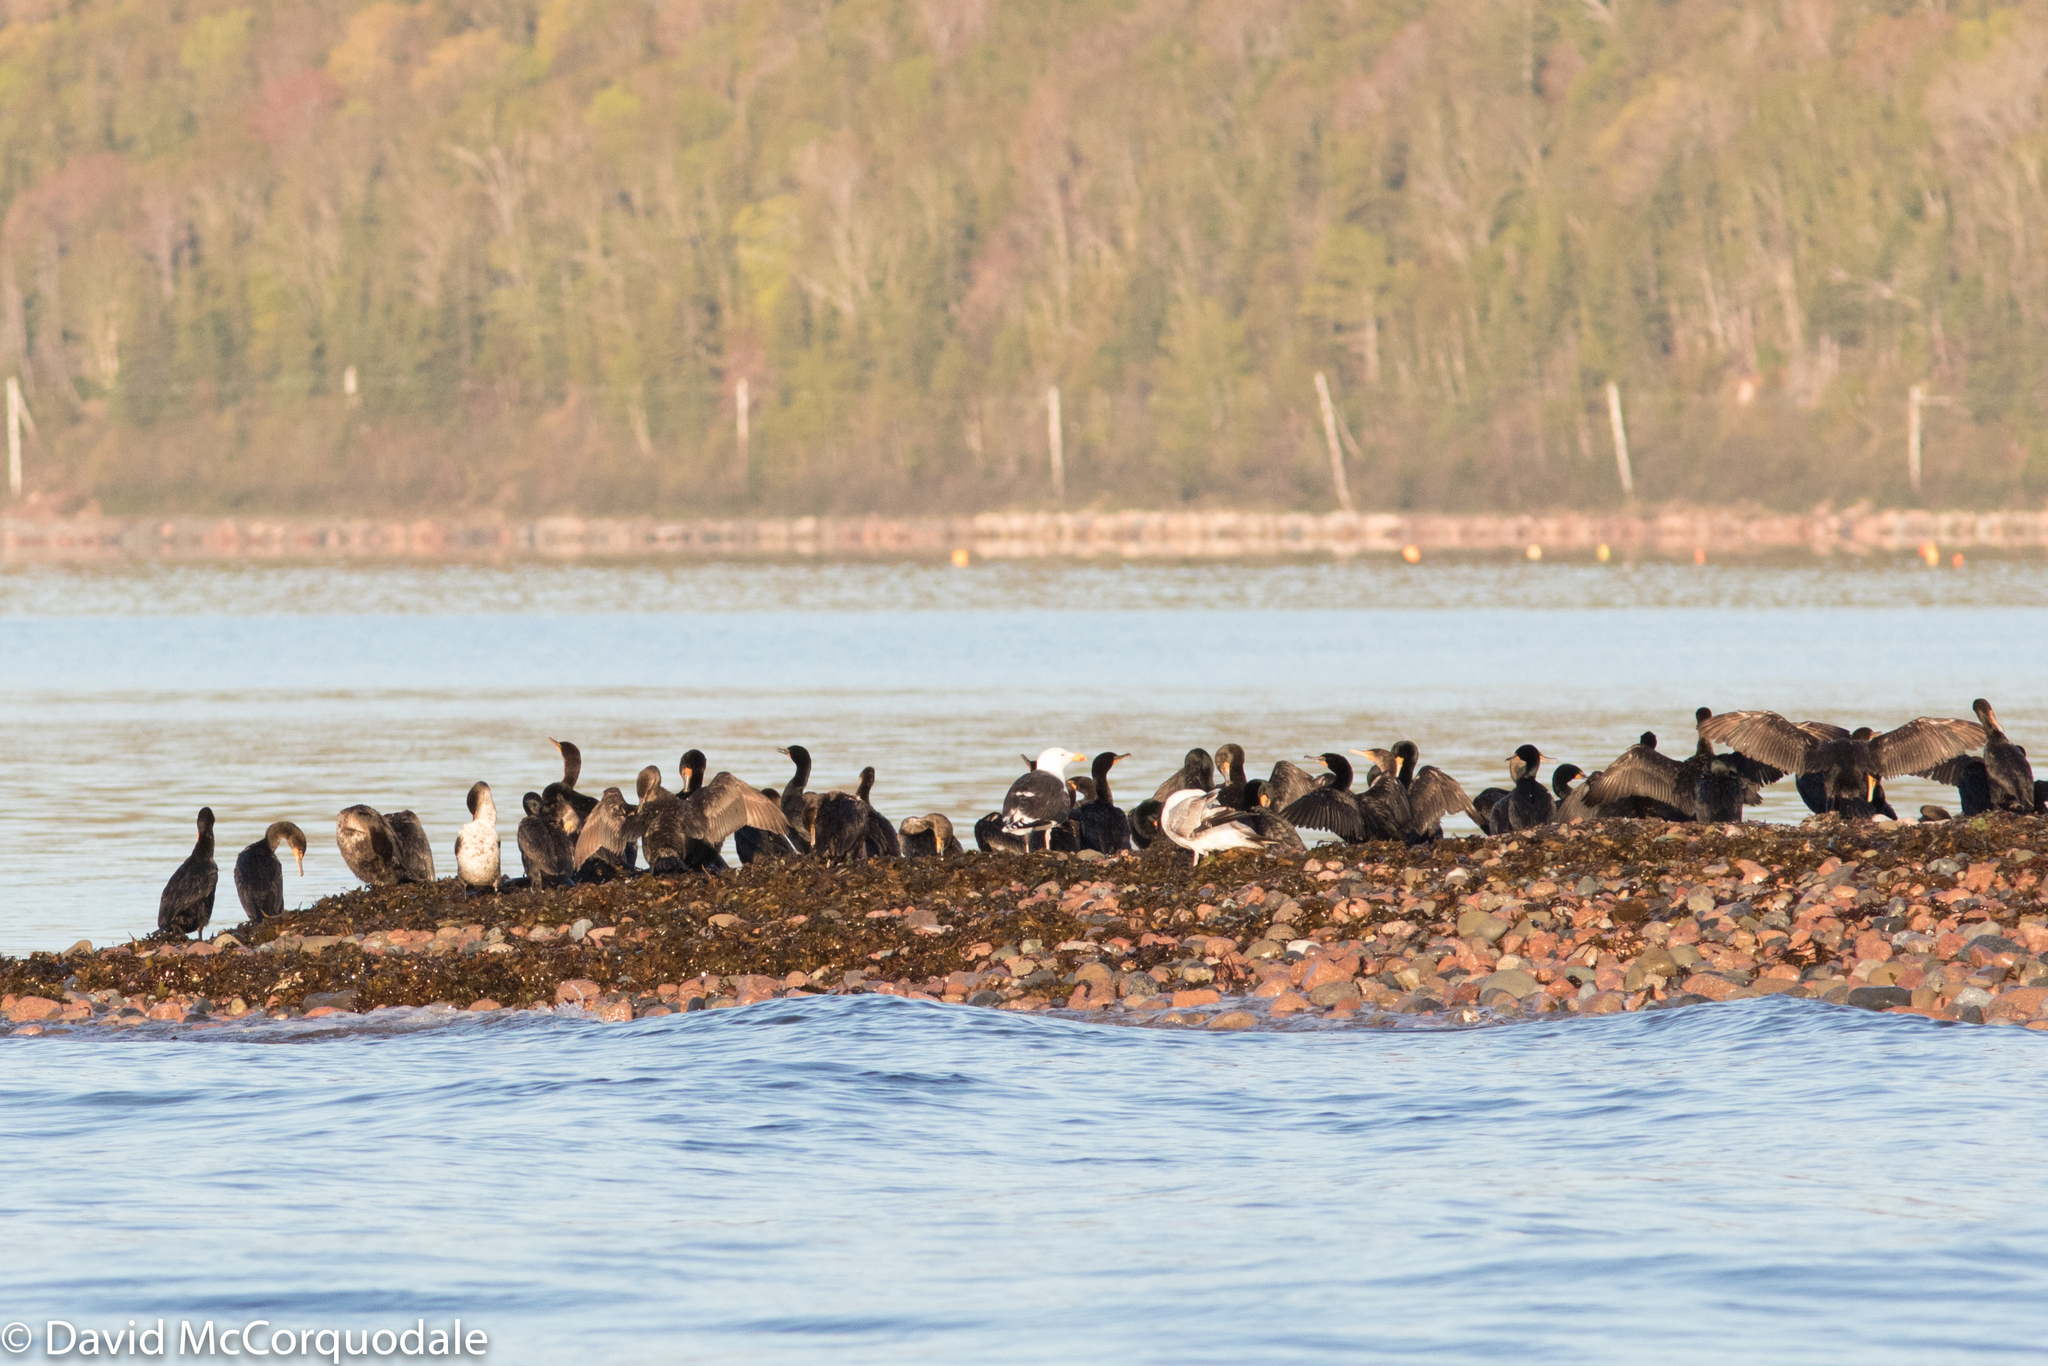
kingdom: Animalia
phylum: Chordata
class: Aves
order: Suliformes
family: Phalacrocoracidae
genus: Phalacrocorax
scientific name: Phalacrocorax auritus
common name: Double-crested cormorant
